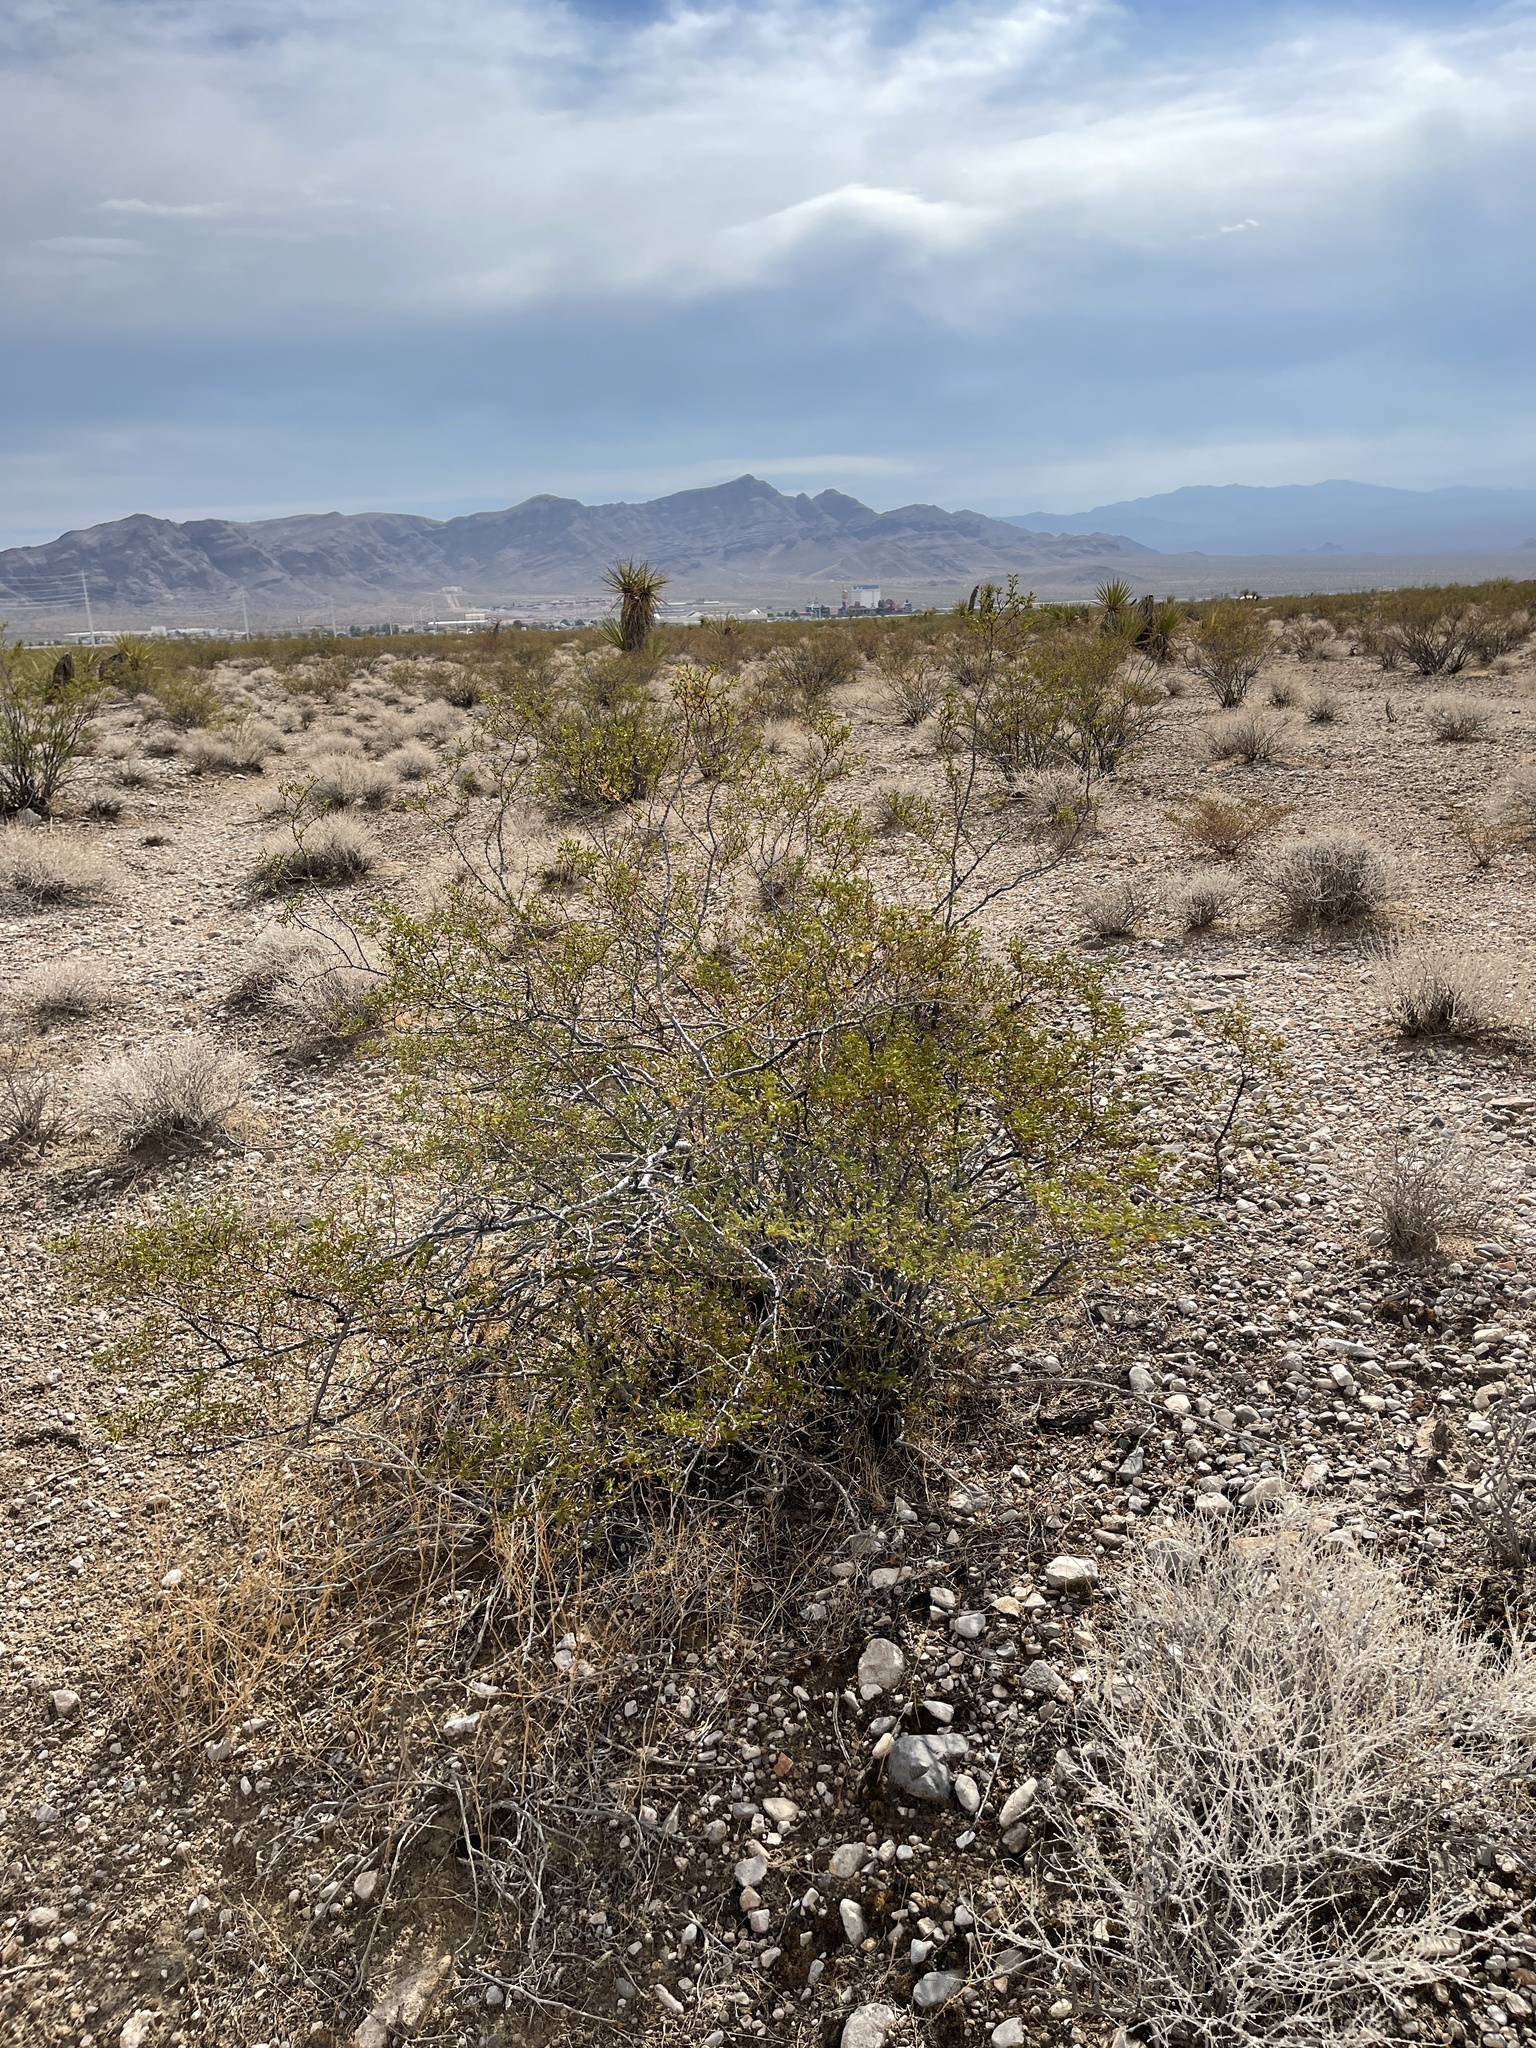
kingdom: Plantae
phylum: Tracheophyta
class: Magnoliopsida
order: Zygophyllales
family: Zygophyllaceae
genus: Larrea
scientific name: Larrea tridentata
